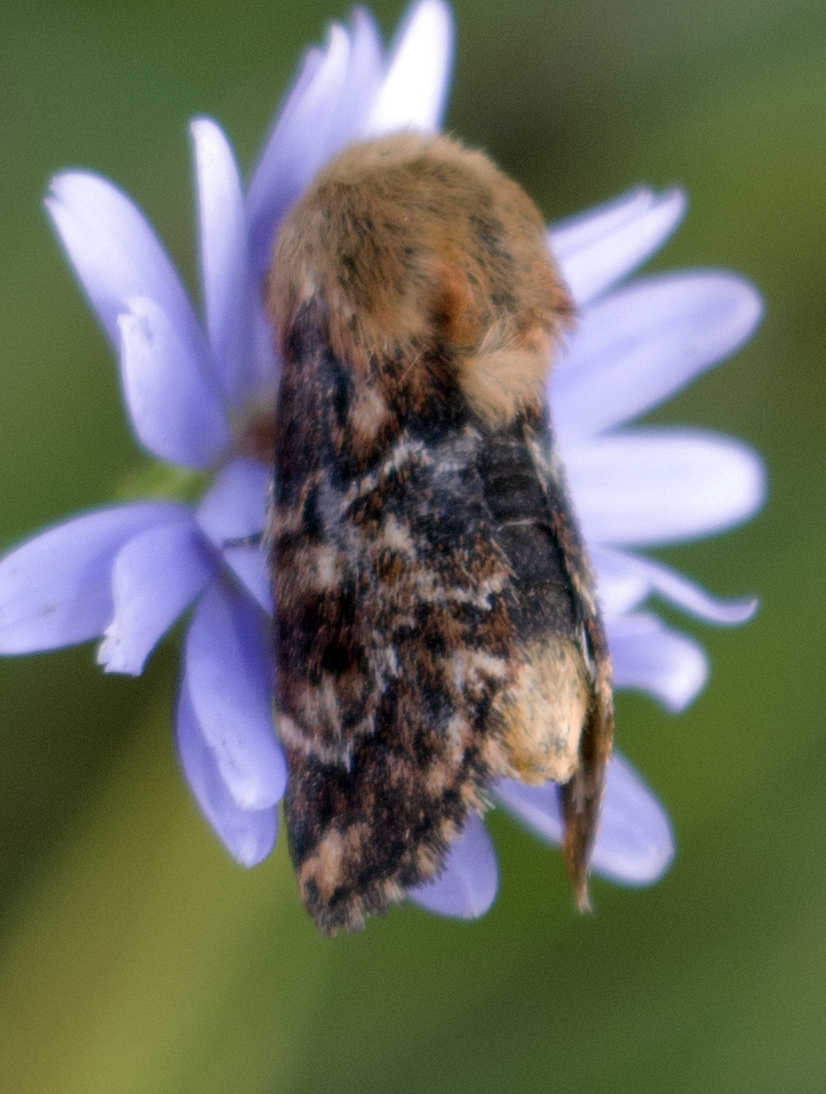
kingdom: Animalia
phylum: Arthropoda
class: Insecta
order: Lepidoptera
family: Noctuidae
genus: Schinia
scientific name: Schinia septentrionalis
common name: Northern flower moth
